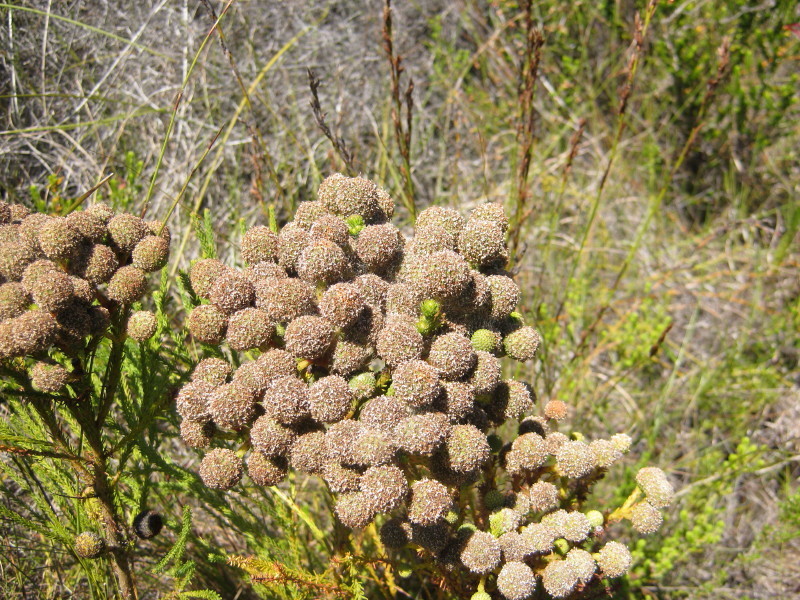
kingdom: Plantae
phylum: Tracheophyta
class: Magnoliopsida
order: Bruniales
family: Bruniaceae
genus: Berzelia
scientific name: Berzelia intermedia
